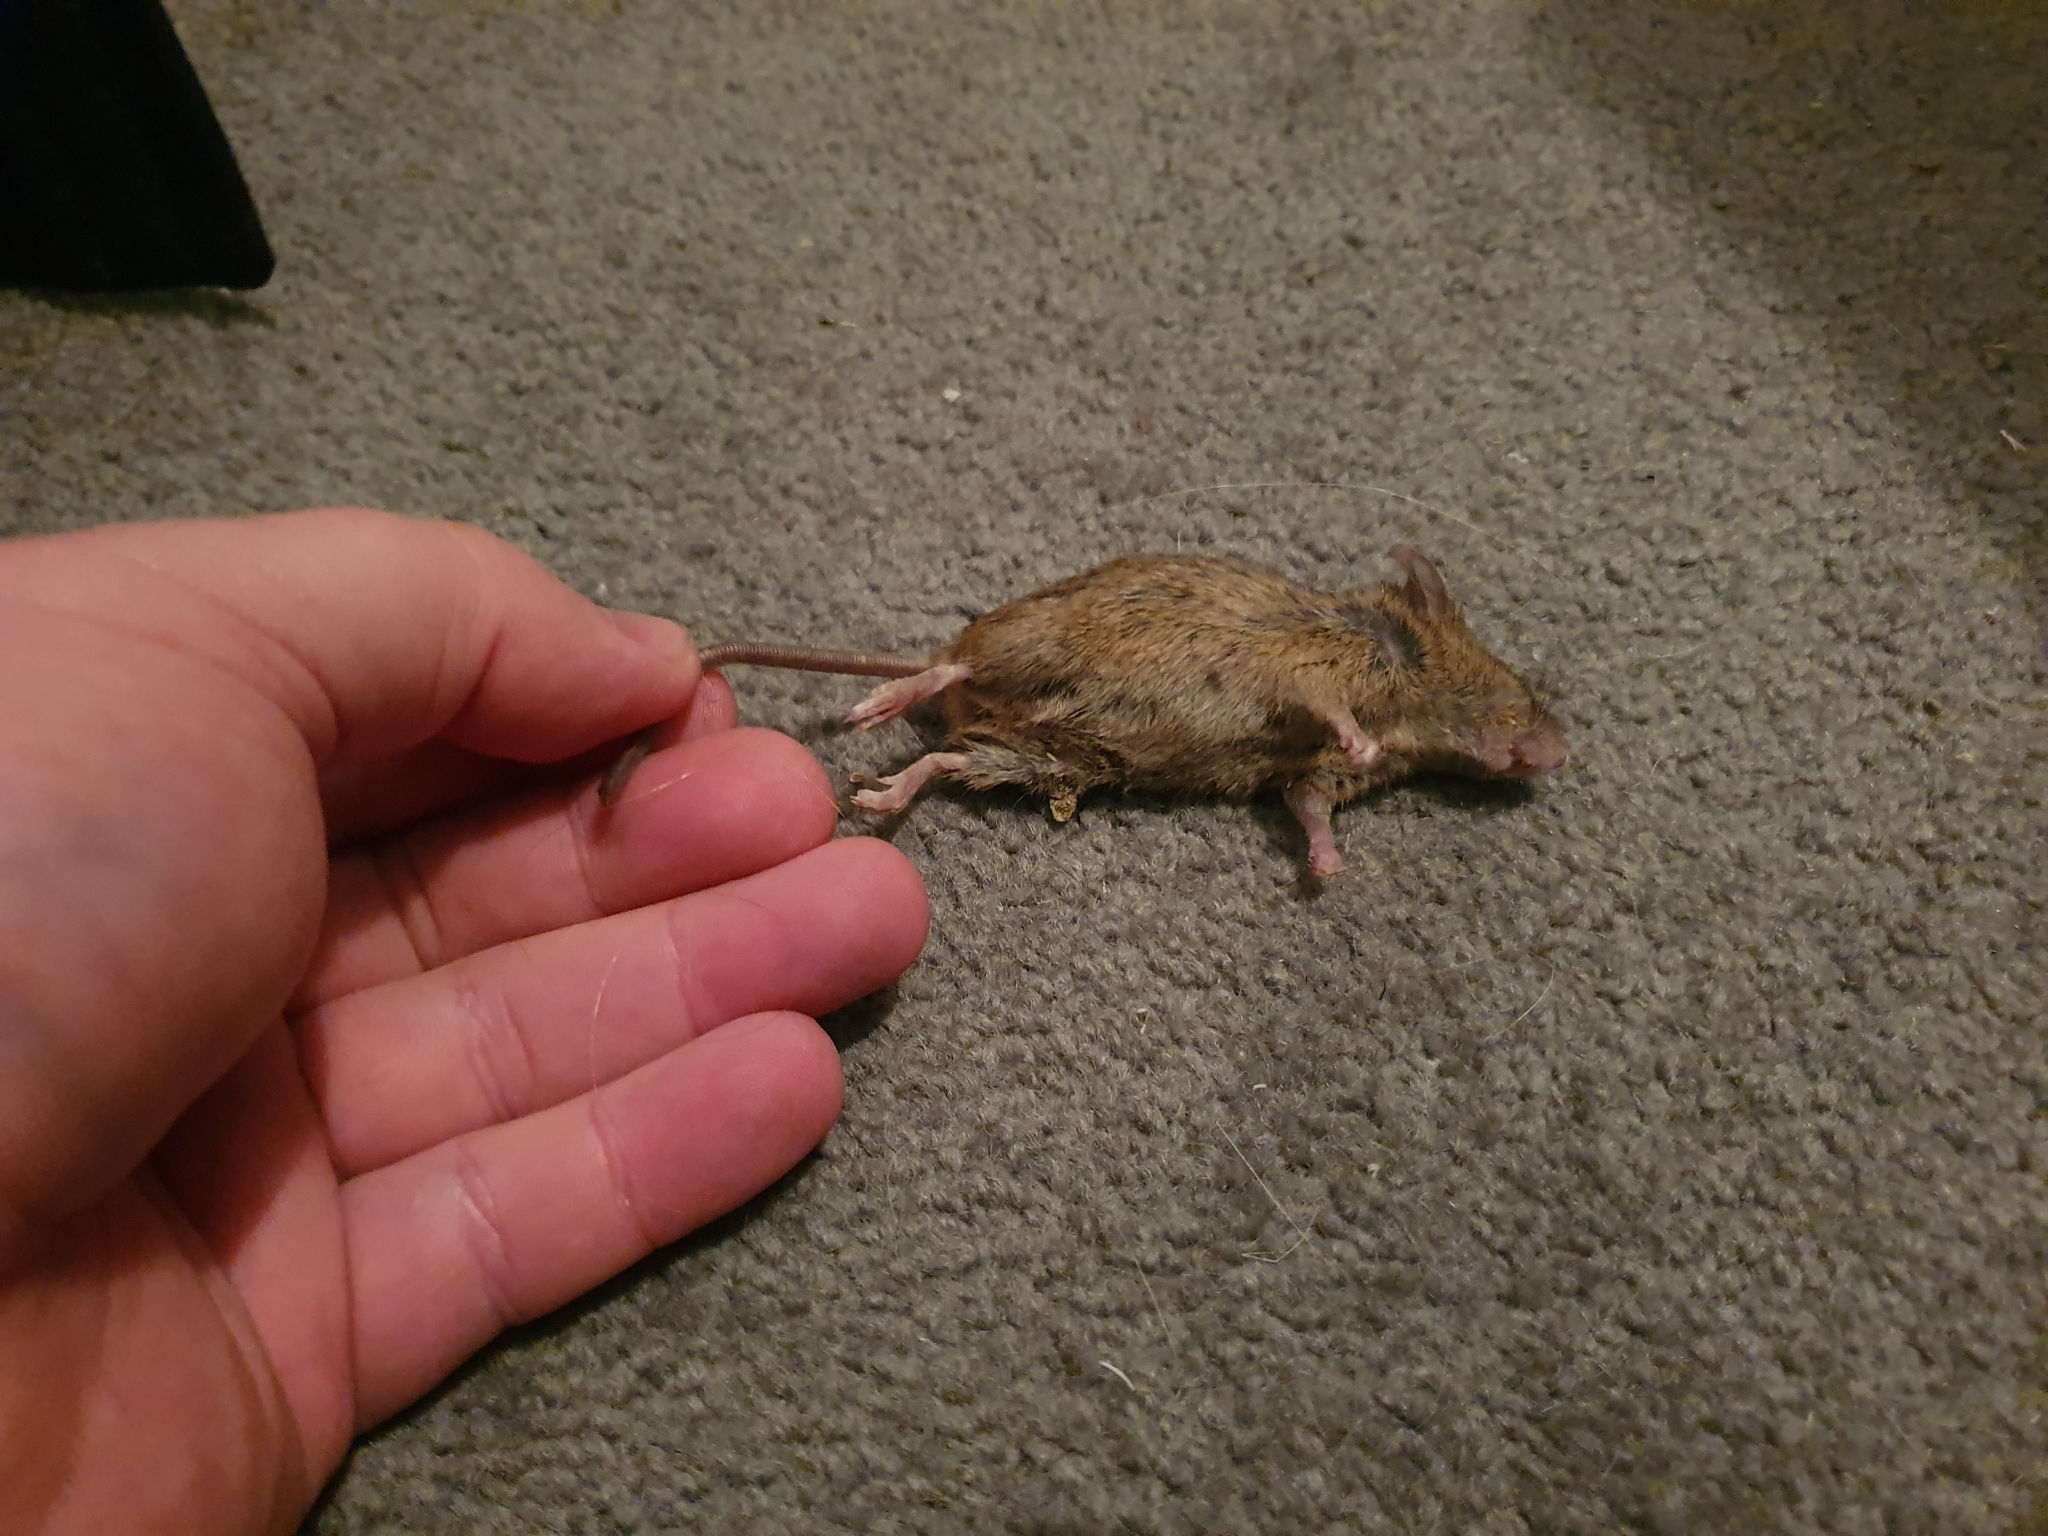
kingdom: Animalia
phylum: Chordata
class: Mammalia
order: Rodentia
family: Muridae
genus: Mus
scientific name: Mus musculus
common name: House mouse
